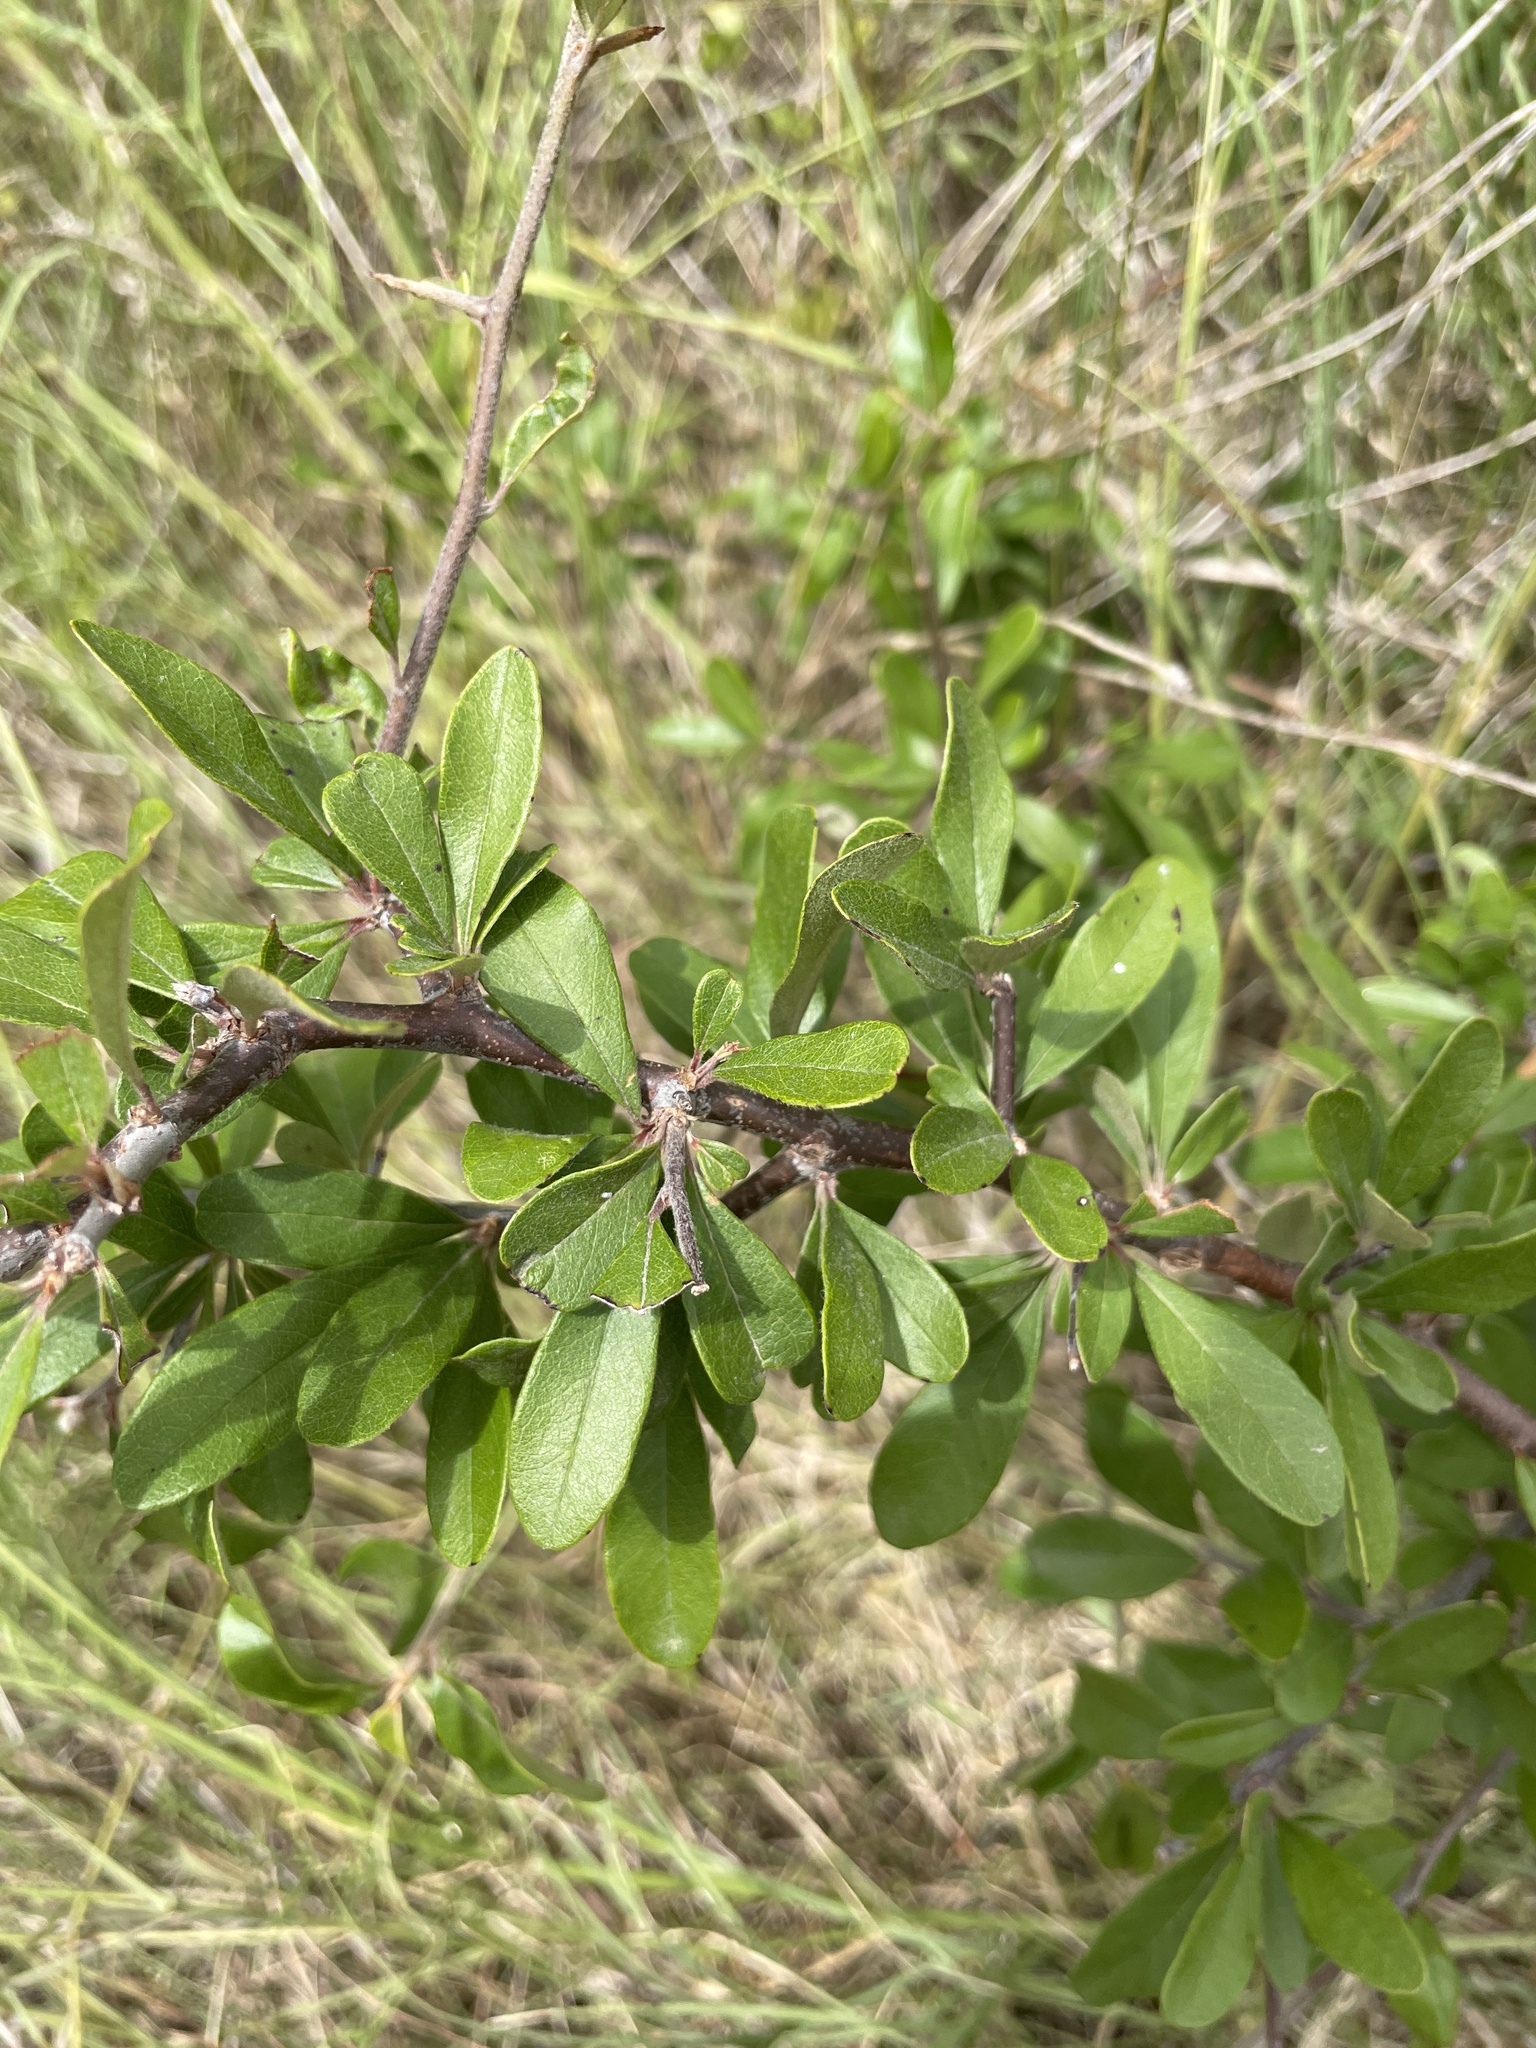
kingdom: Plantae
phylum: Tracheophyta
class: Magnoliopsida
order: Ericales
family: Sapotaceae
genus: Sideroxylon
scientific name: Sideroxylon lanuginosum
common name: Chittamwood
